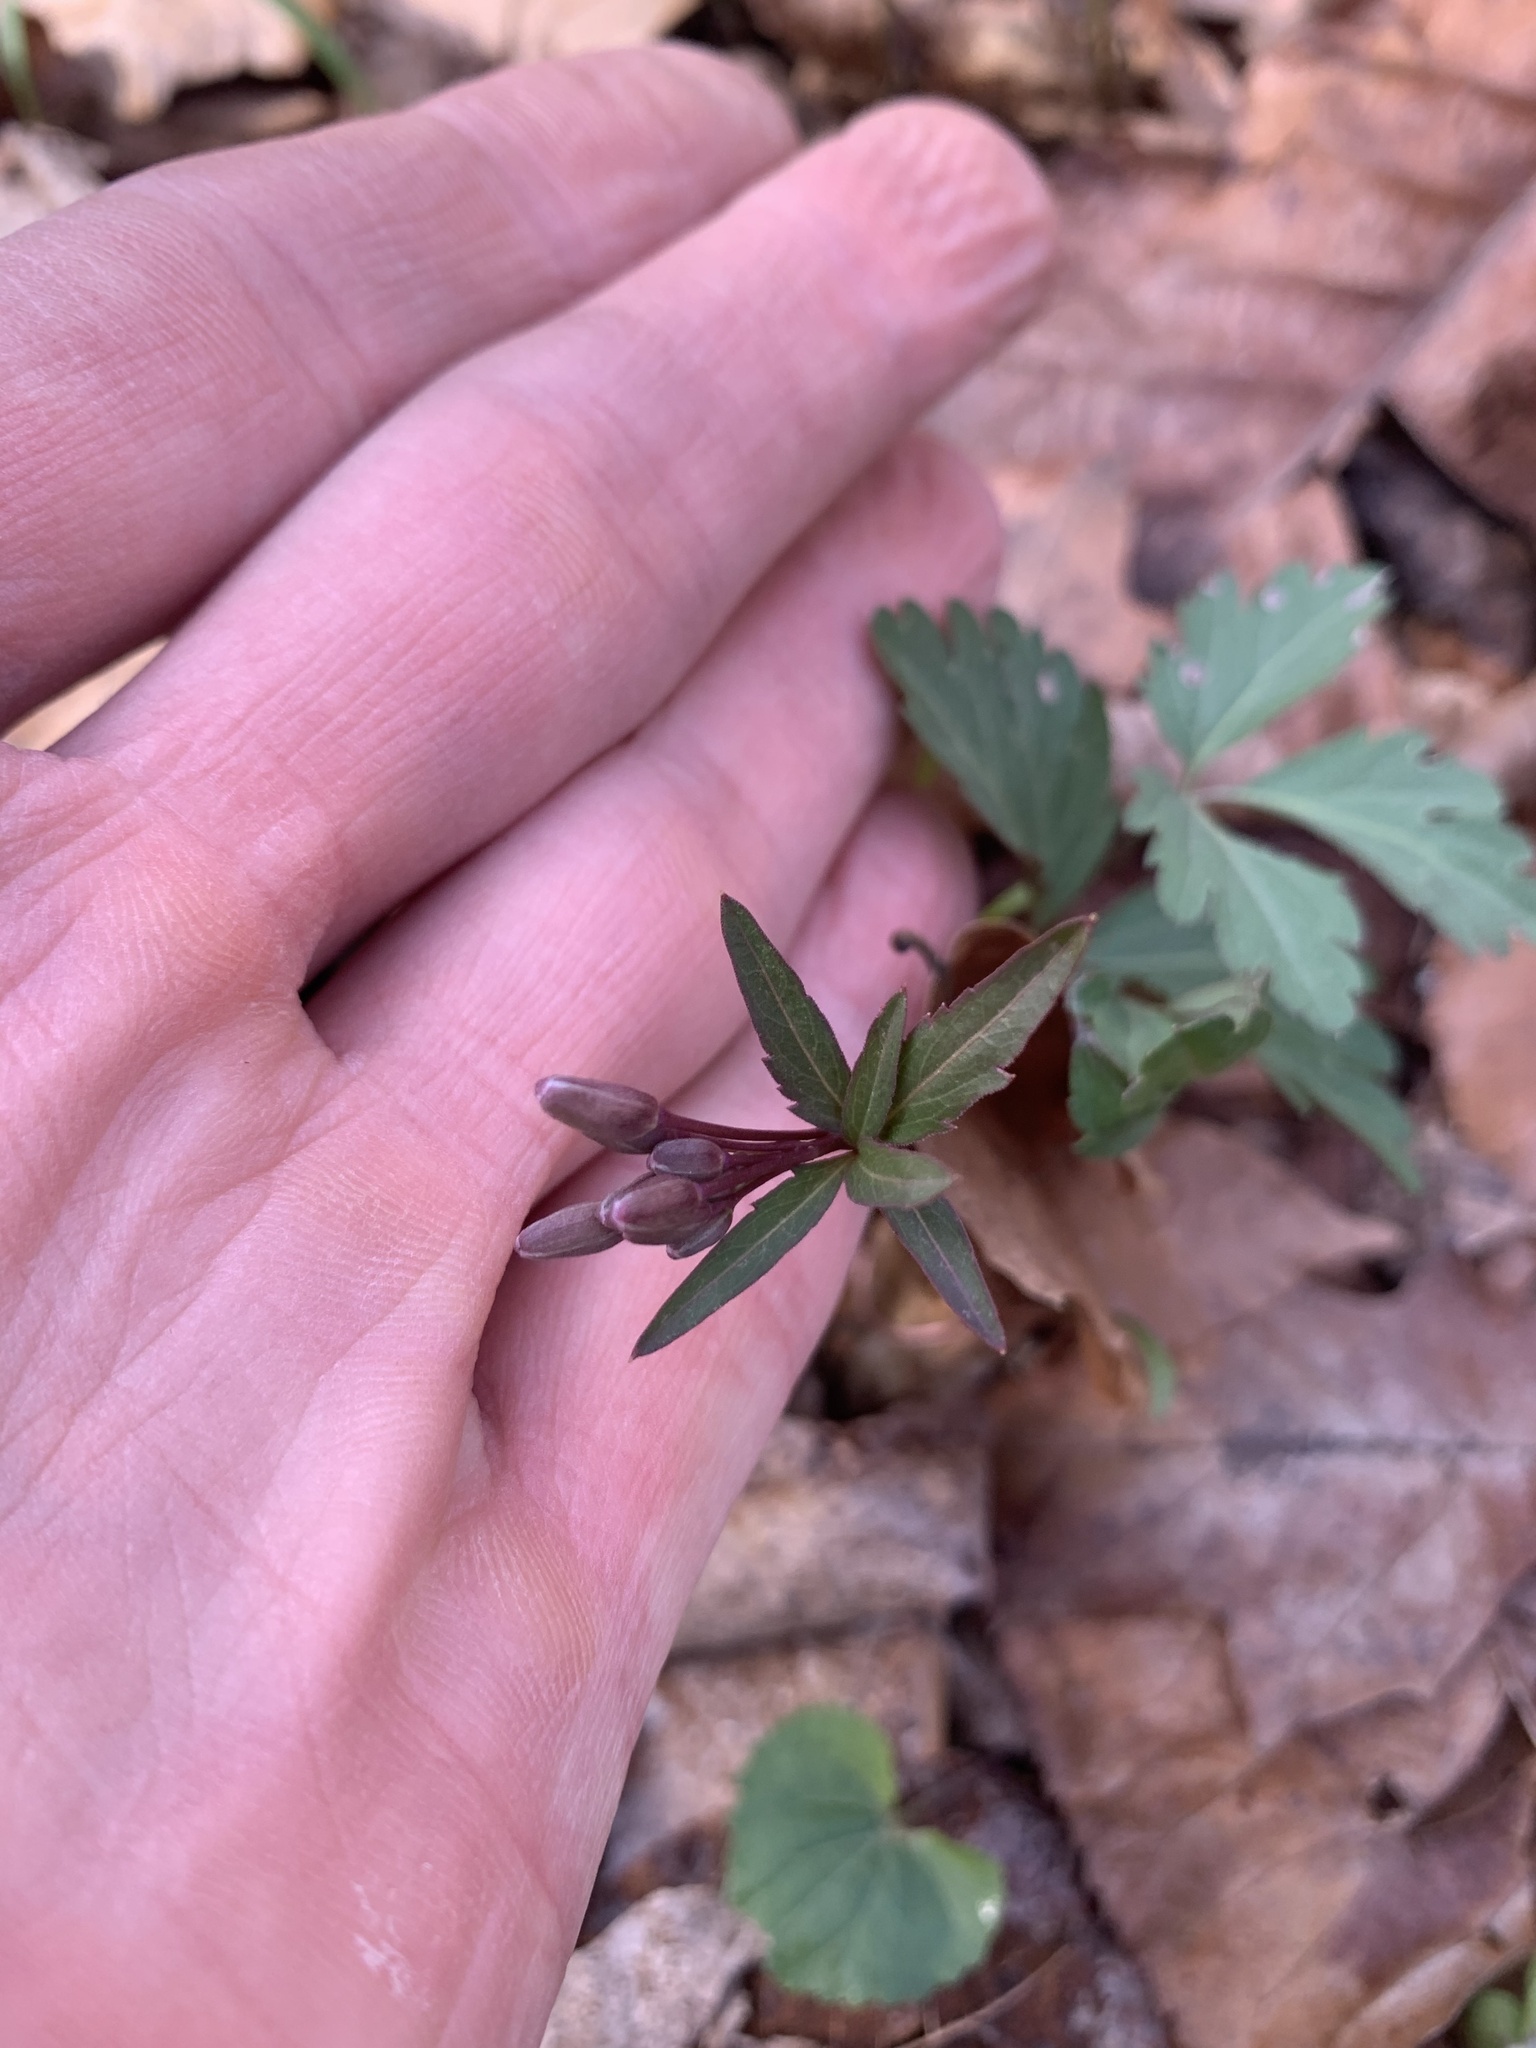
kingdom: Plantae
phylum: Tracheophyta
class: Magnoliopsida
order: Brassicales
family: Brassicaceae
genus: Cardamine
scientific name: Cardamine angustata
